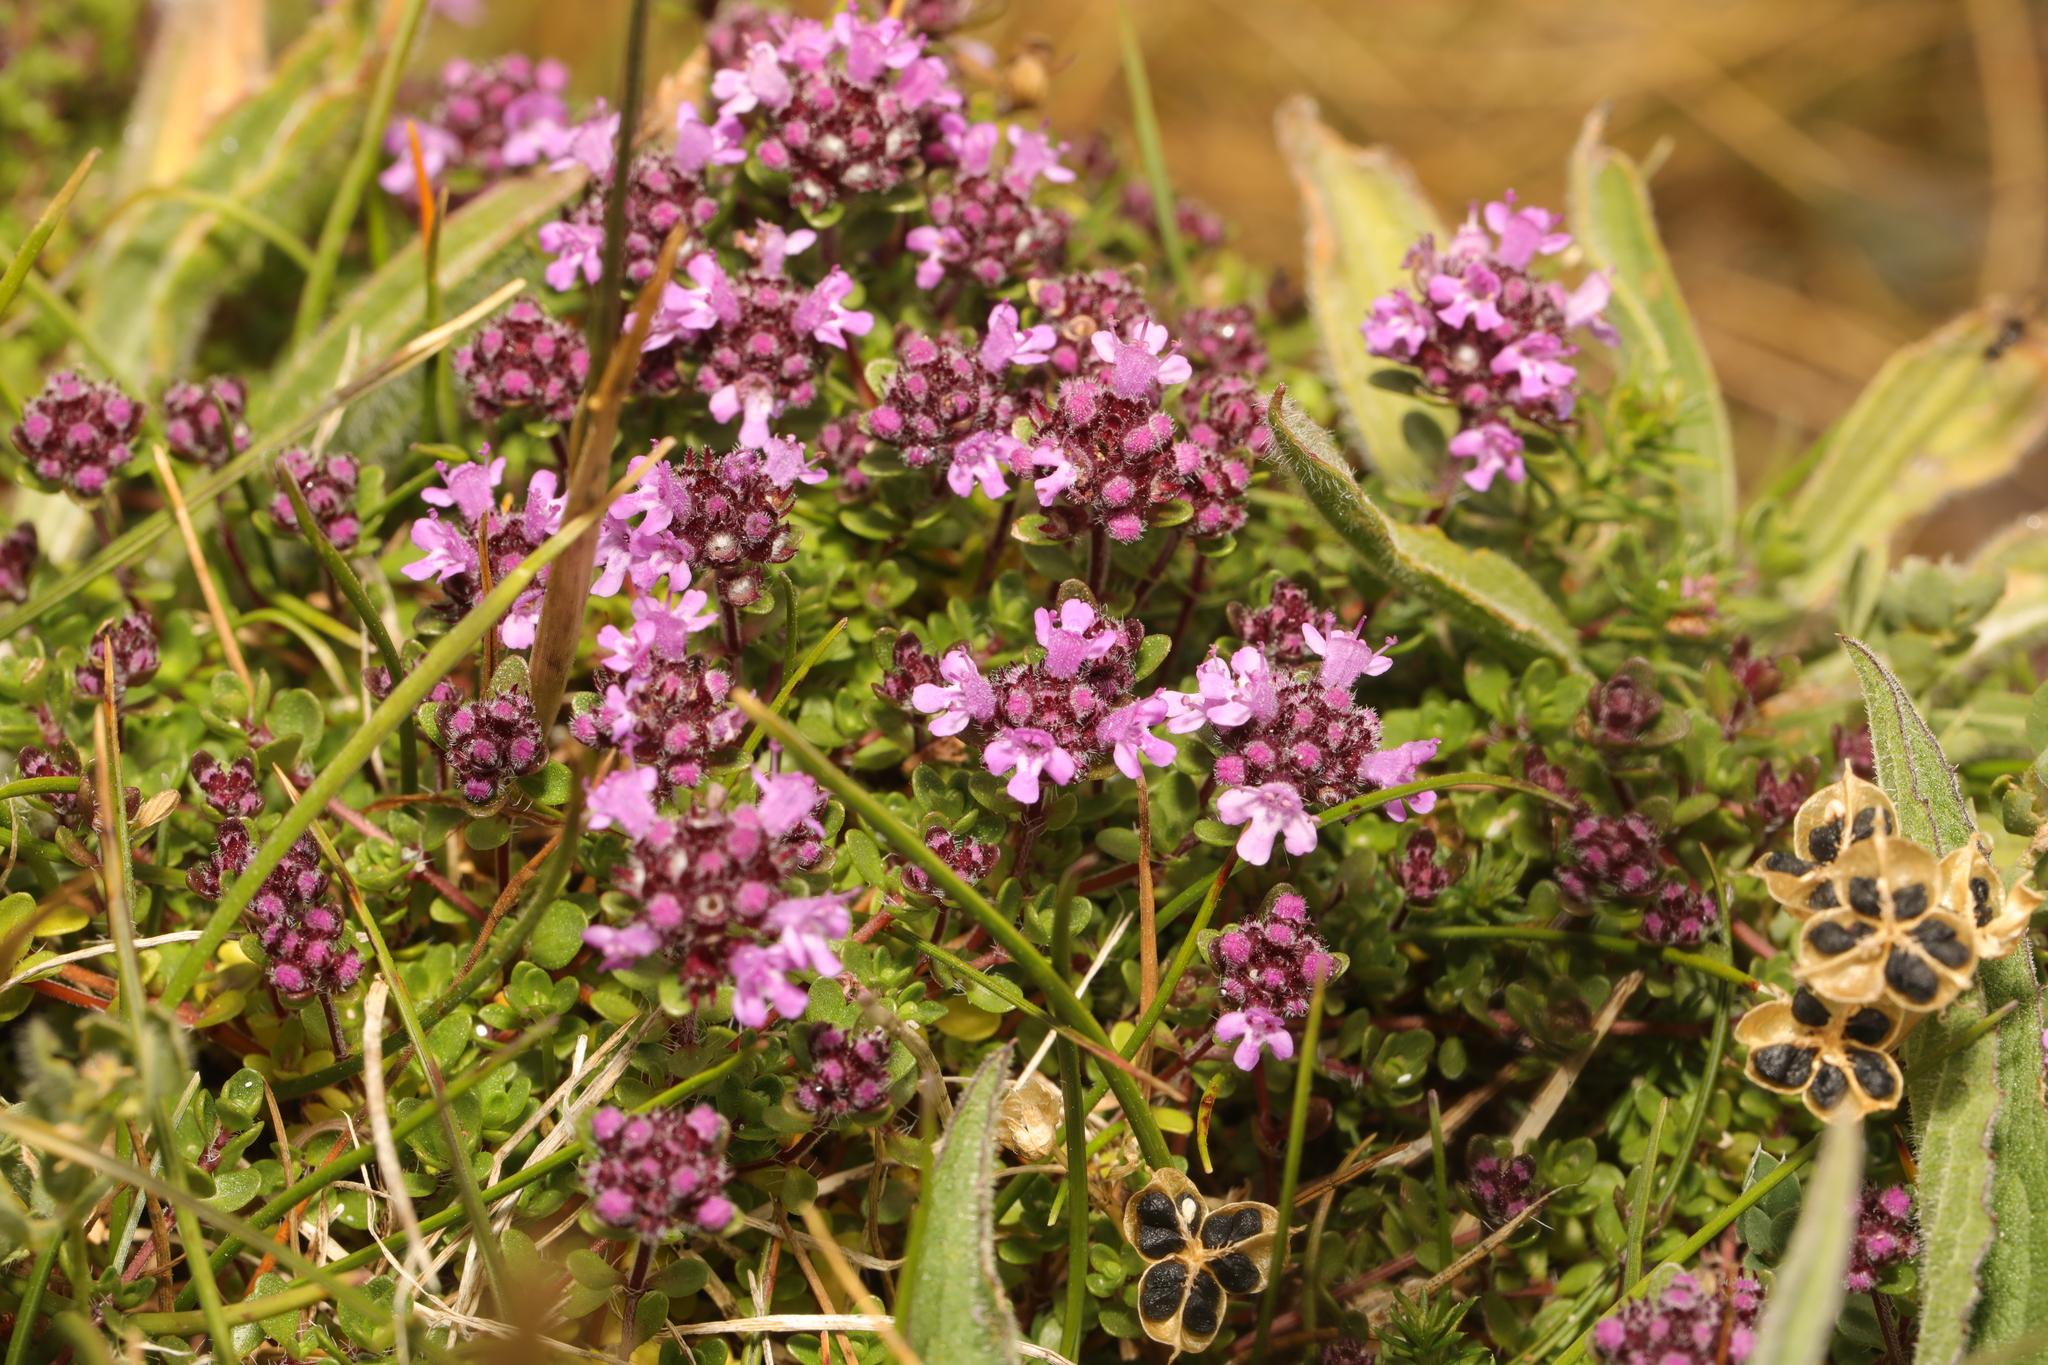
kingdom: Plantae
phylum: Tracheophyta
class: Magnoliopsida
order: Lamiales
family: Lamiaceae
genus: Thymus
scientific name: Thymus praecox
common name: Wild thyme
